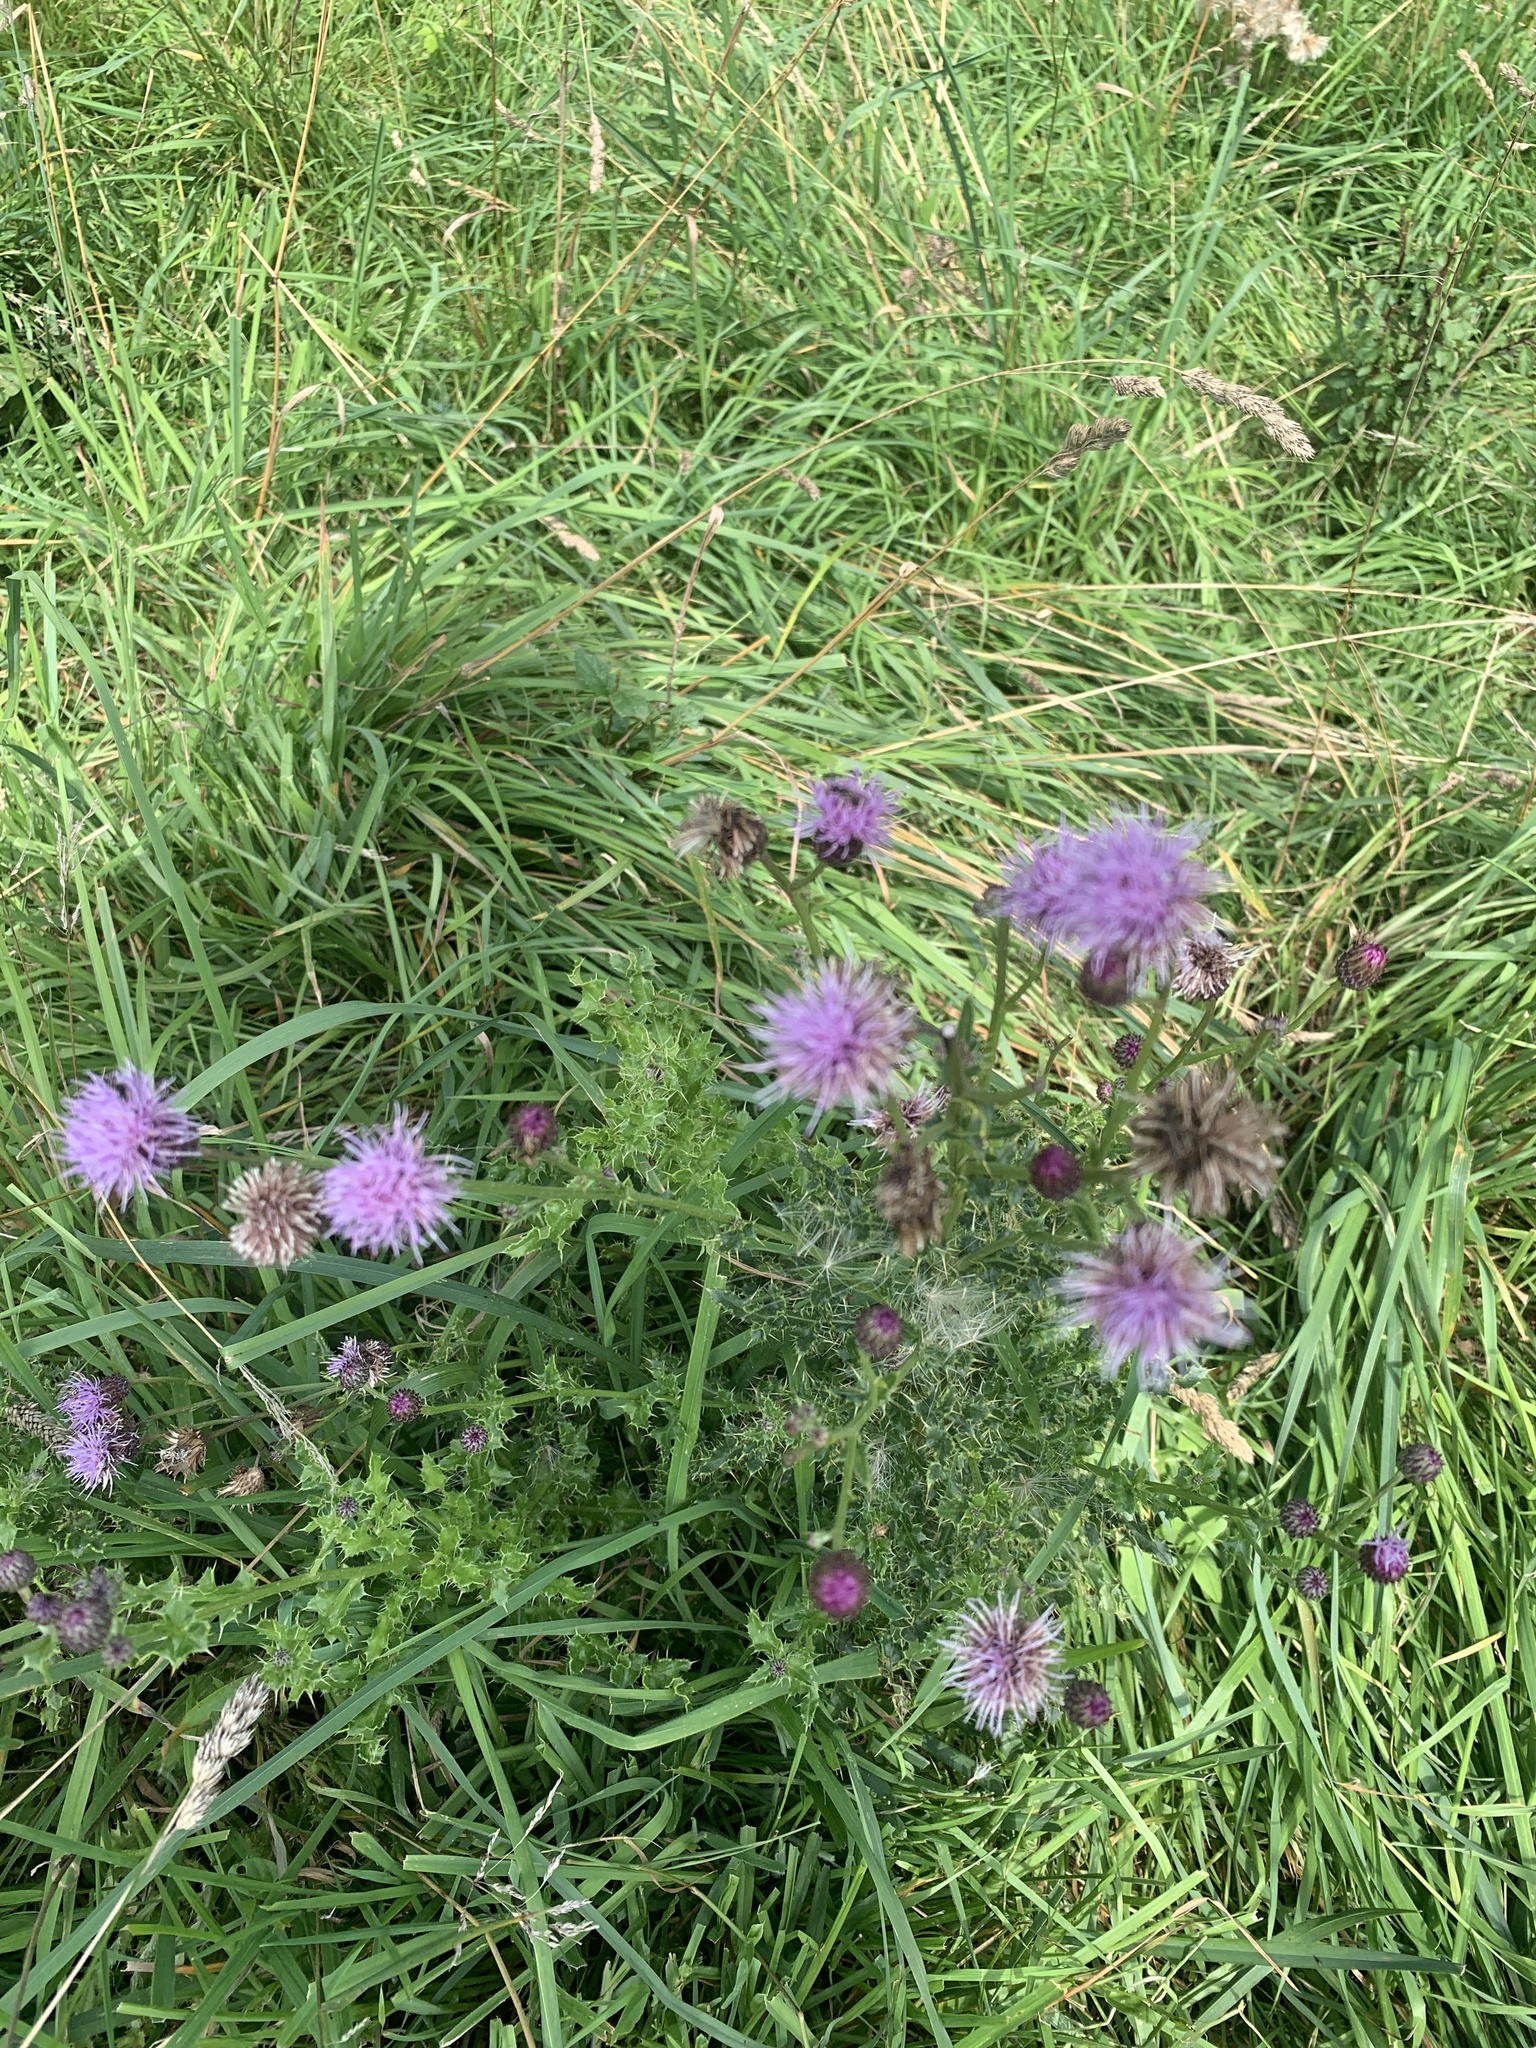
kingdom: Plantae
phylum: Tracheophyta
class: Magnoliopsida
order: Asterales
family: Asteraceae
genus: Cirsium
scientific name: Cirsium arvense
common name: Creeping thistle
